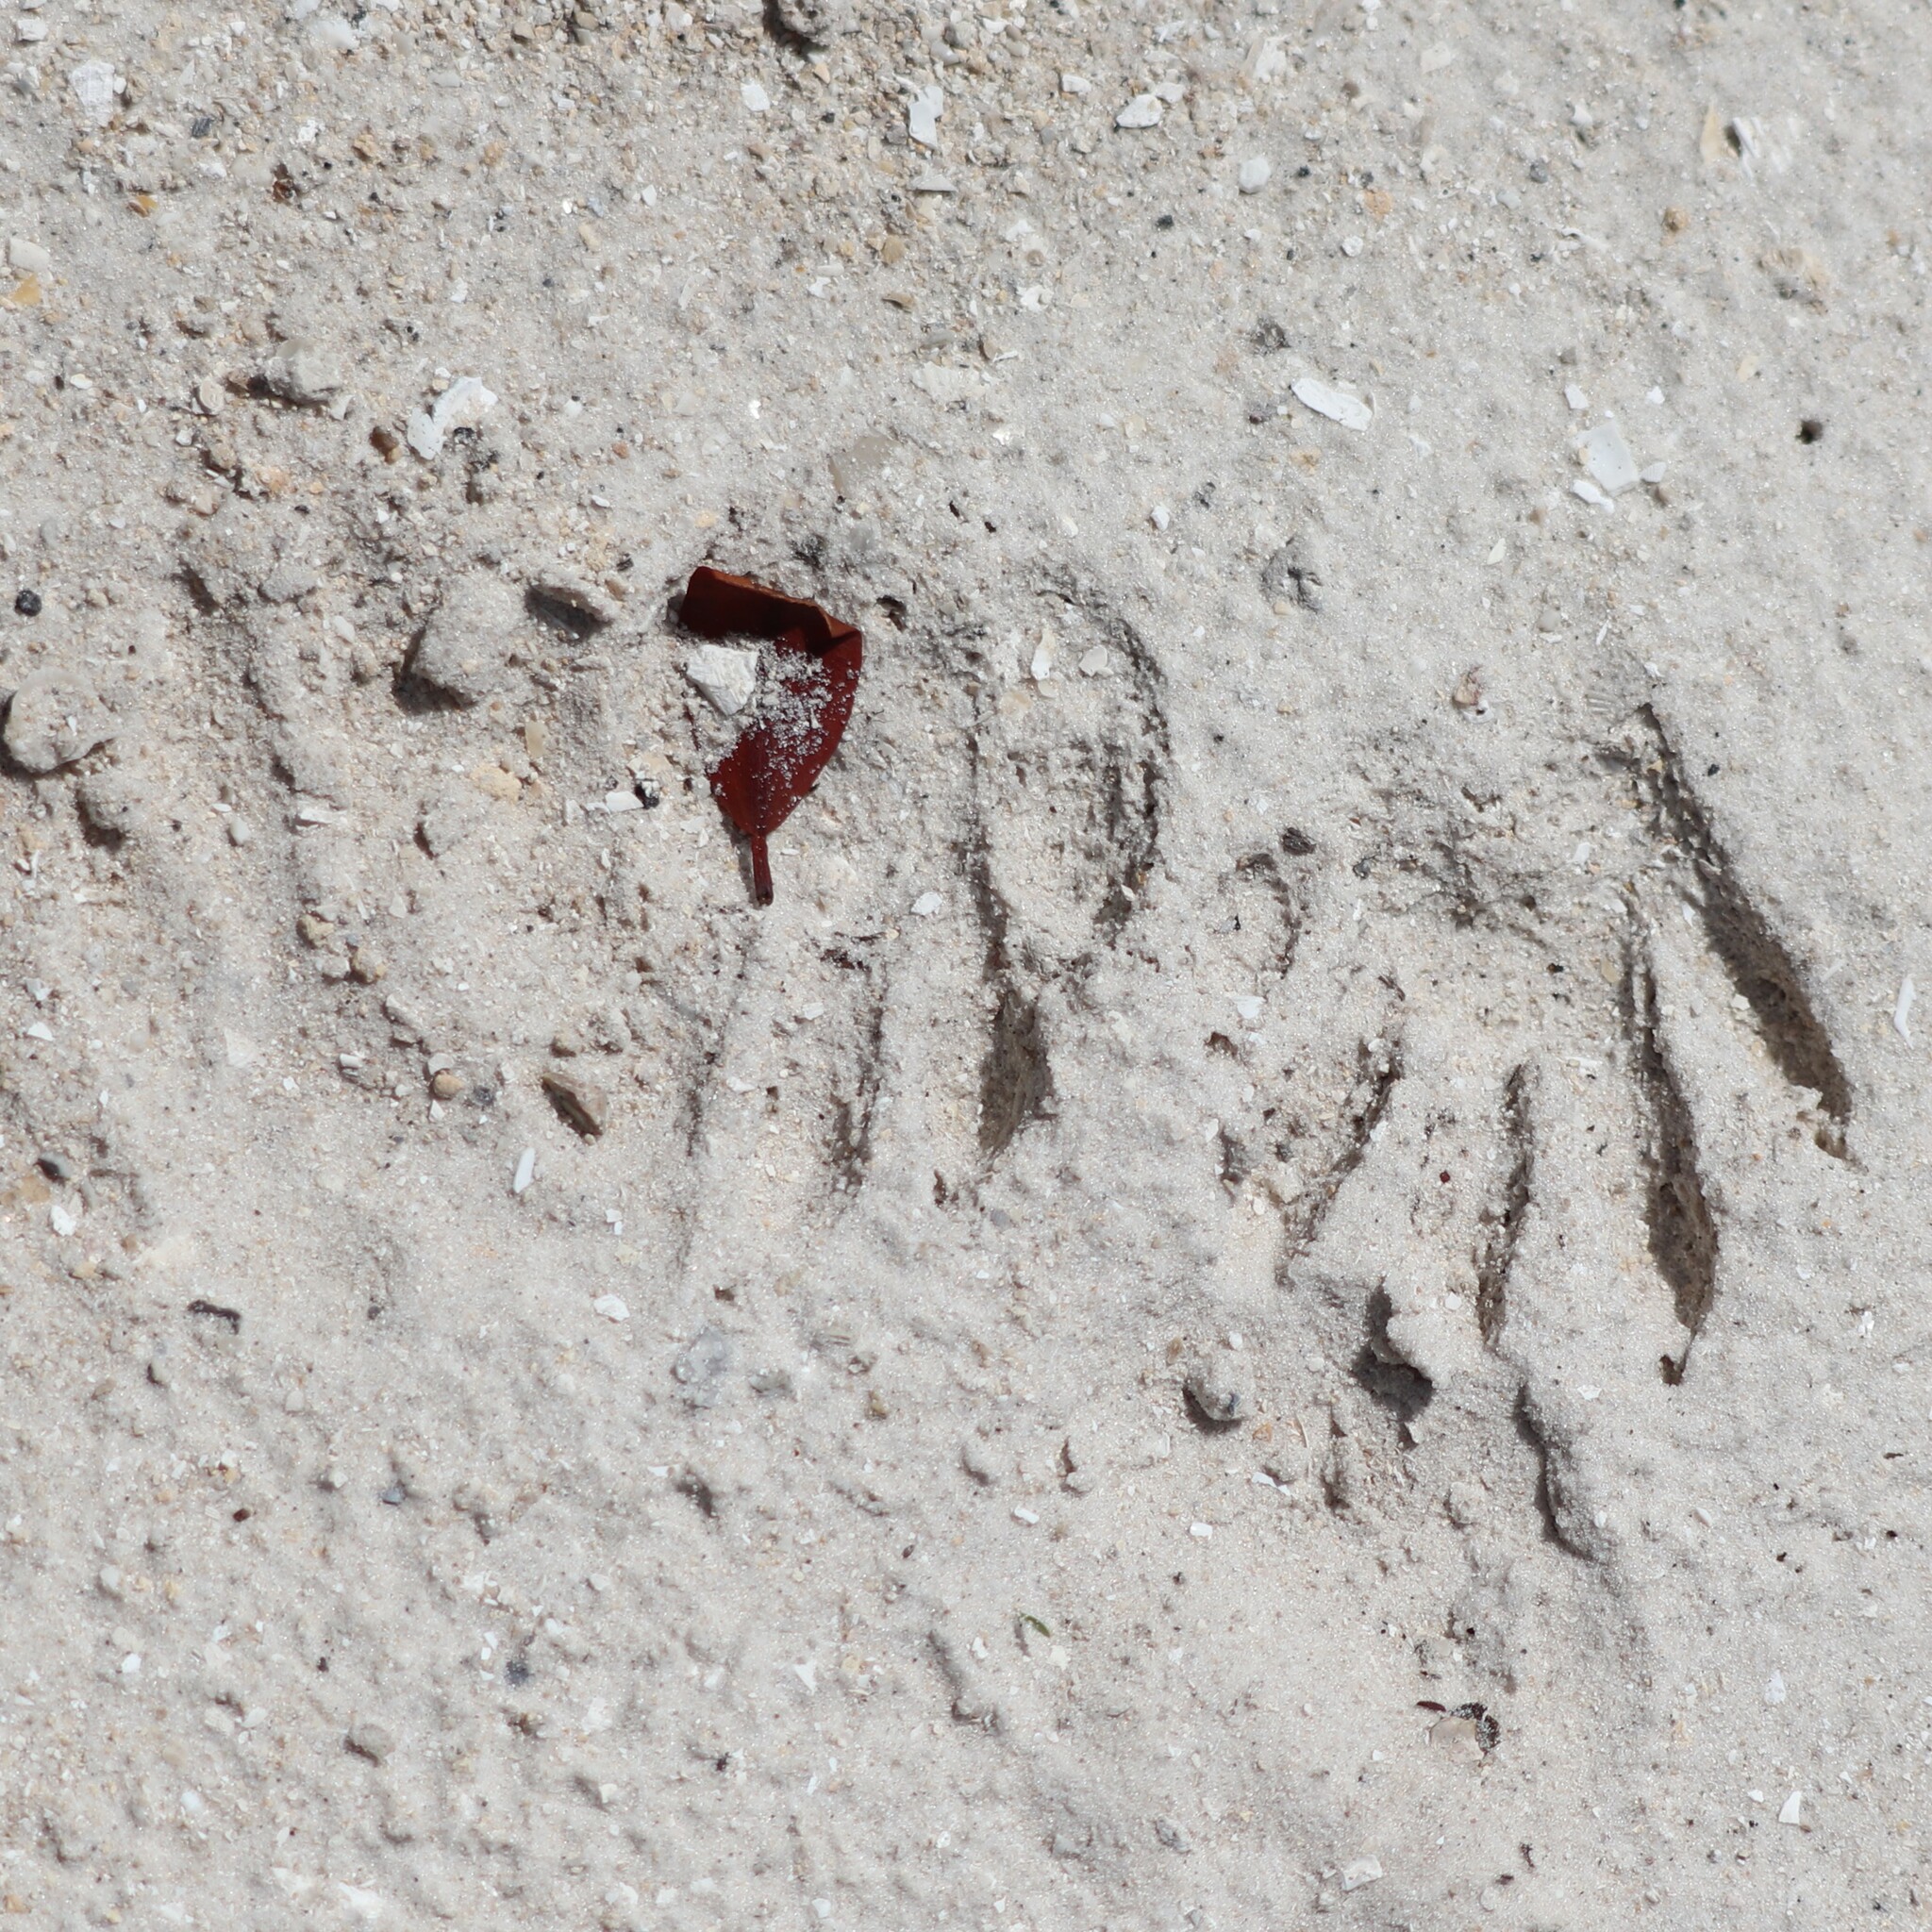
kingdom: Animalia
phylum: Chordata
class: Mammalia
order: Carnivora
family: Procyonidae
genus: Procyon
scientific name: Procyon lotor
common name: Raccoon
